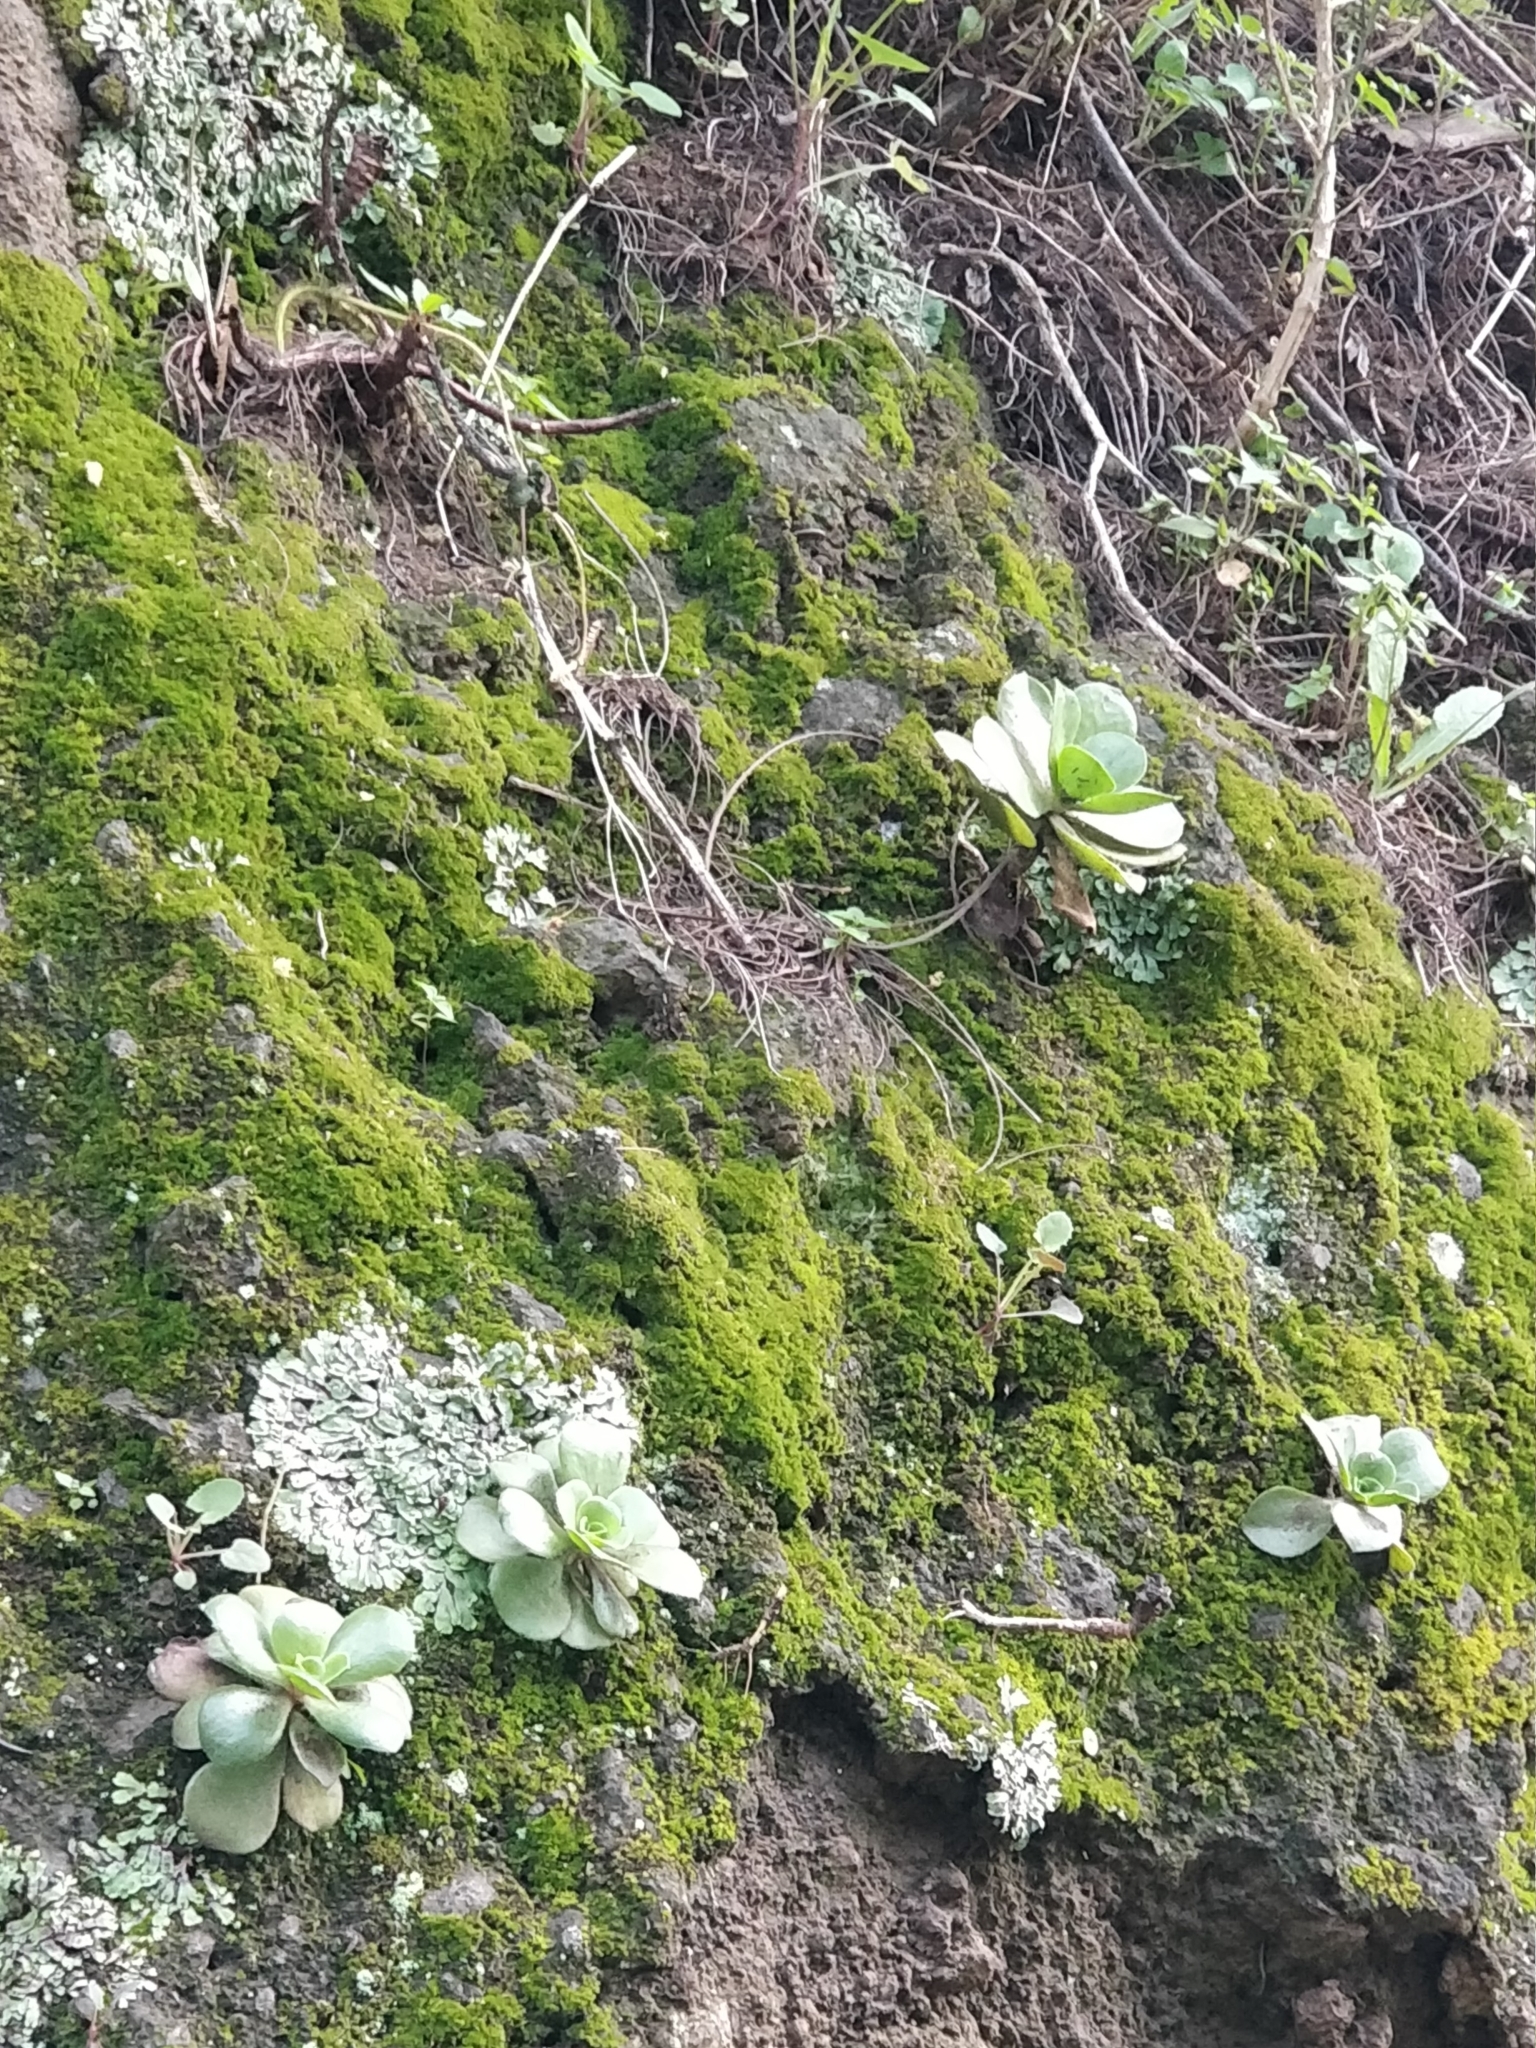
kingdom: Plantae
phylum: Tracheophyta
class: Magnoliopsida
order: Saxifragales
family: Crassulaceae
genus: Aeonium
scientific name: Aeonium glutinosum
